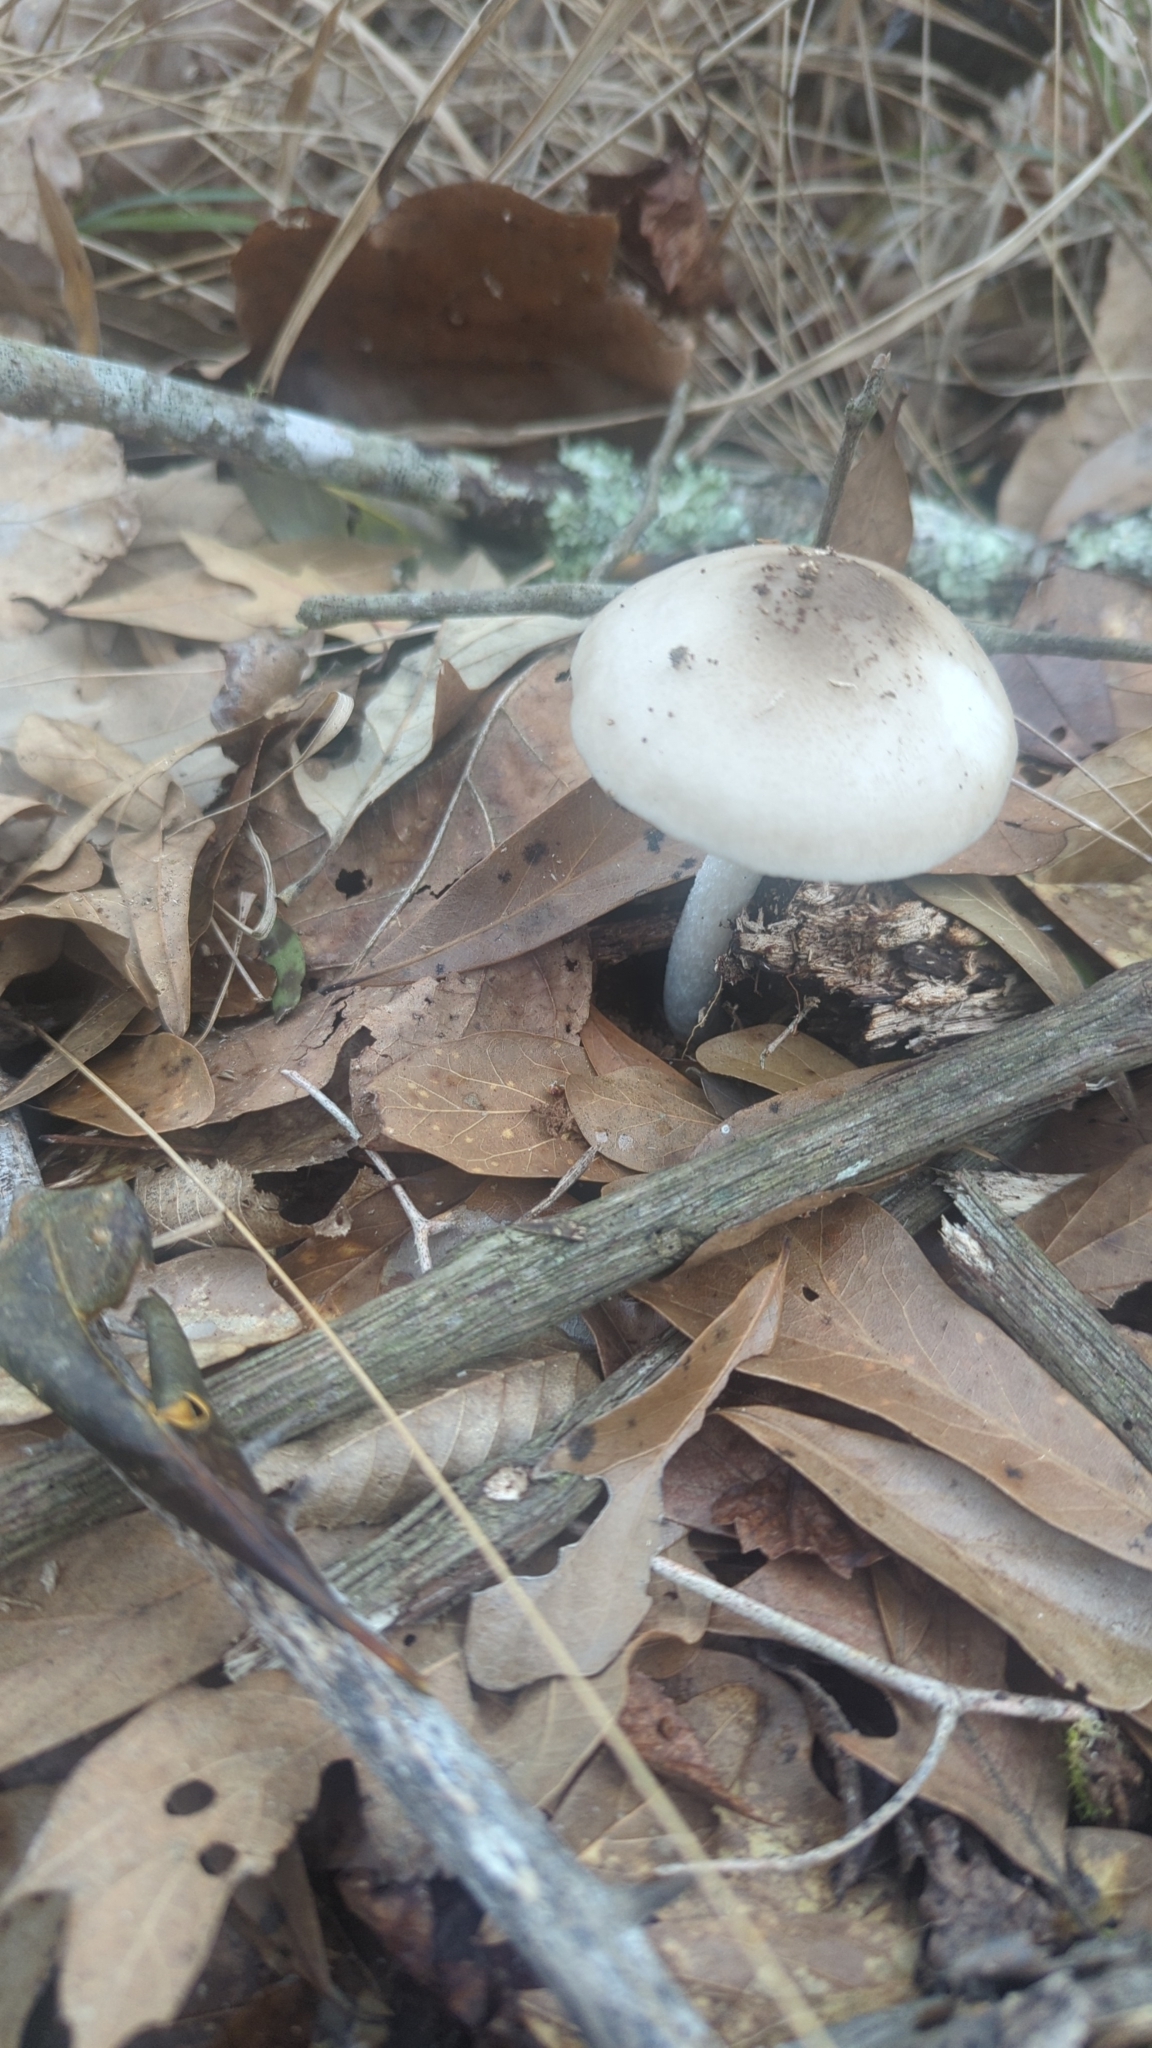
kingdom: Fungi
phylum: Basidiomycota
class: Agaricomycetes
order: Agaricales
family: Pluteaceae
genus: Pluteus
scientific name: Pluteus cervinus
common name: Deer shield
